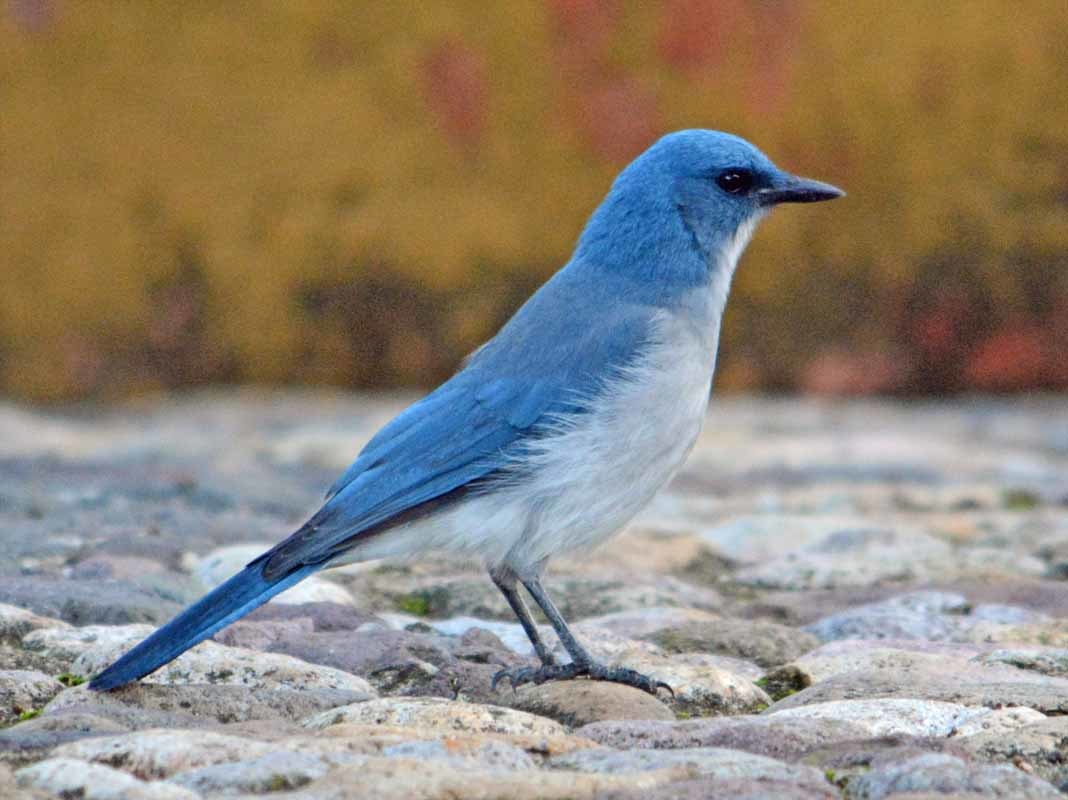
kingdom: Animalia
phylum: Chordata
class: Aves
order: Passeriformes
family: Corvidae
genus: Aphelocoma
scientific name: Aphelocoma wollweberi
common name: Mexican jay
